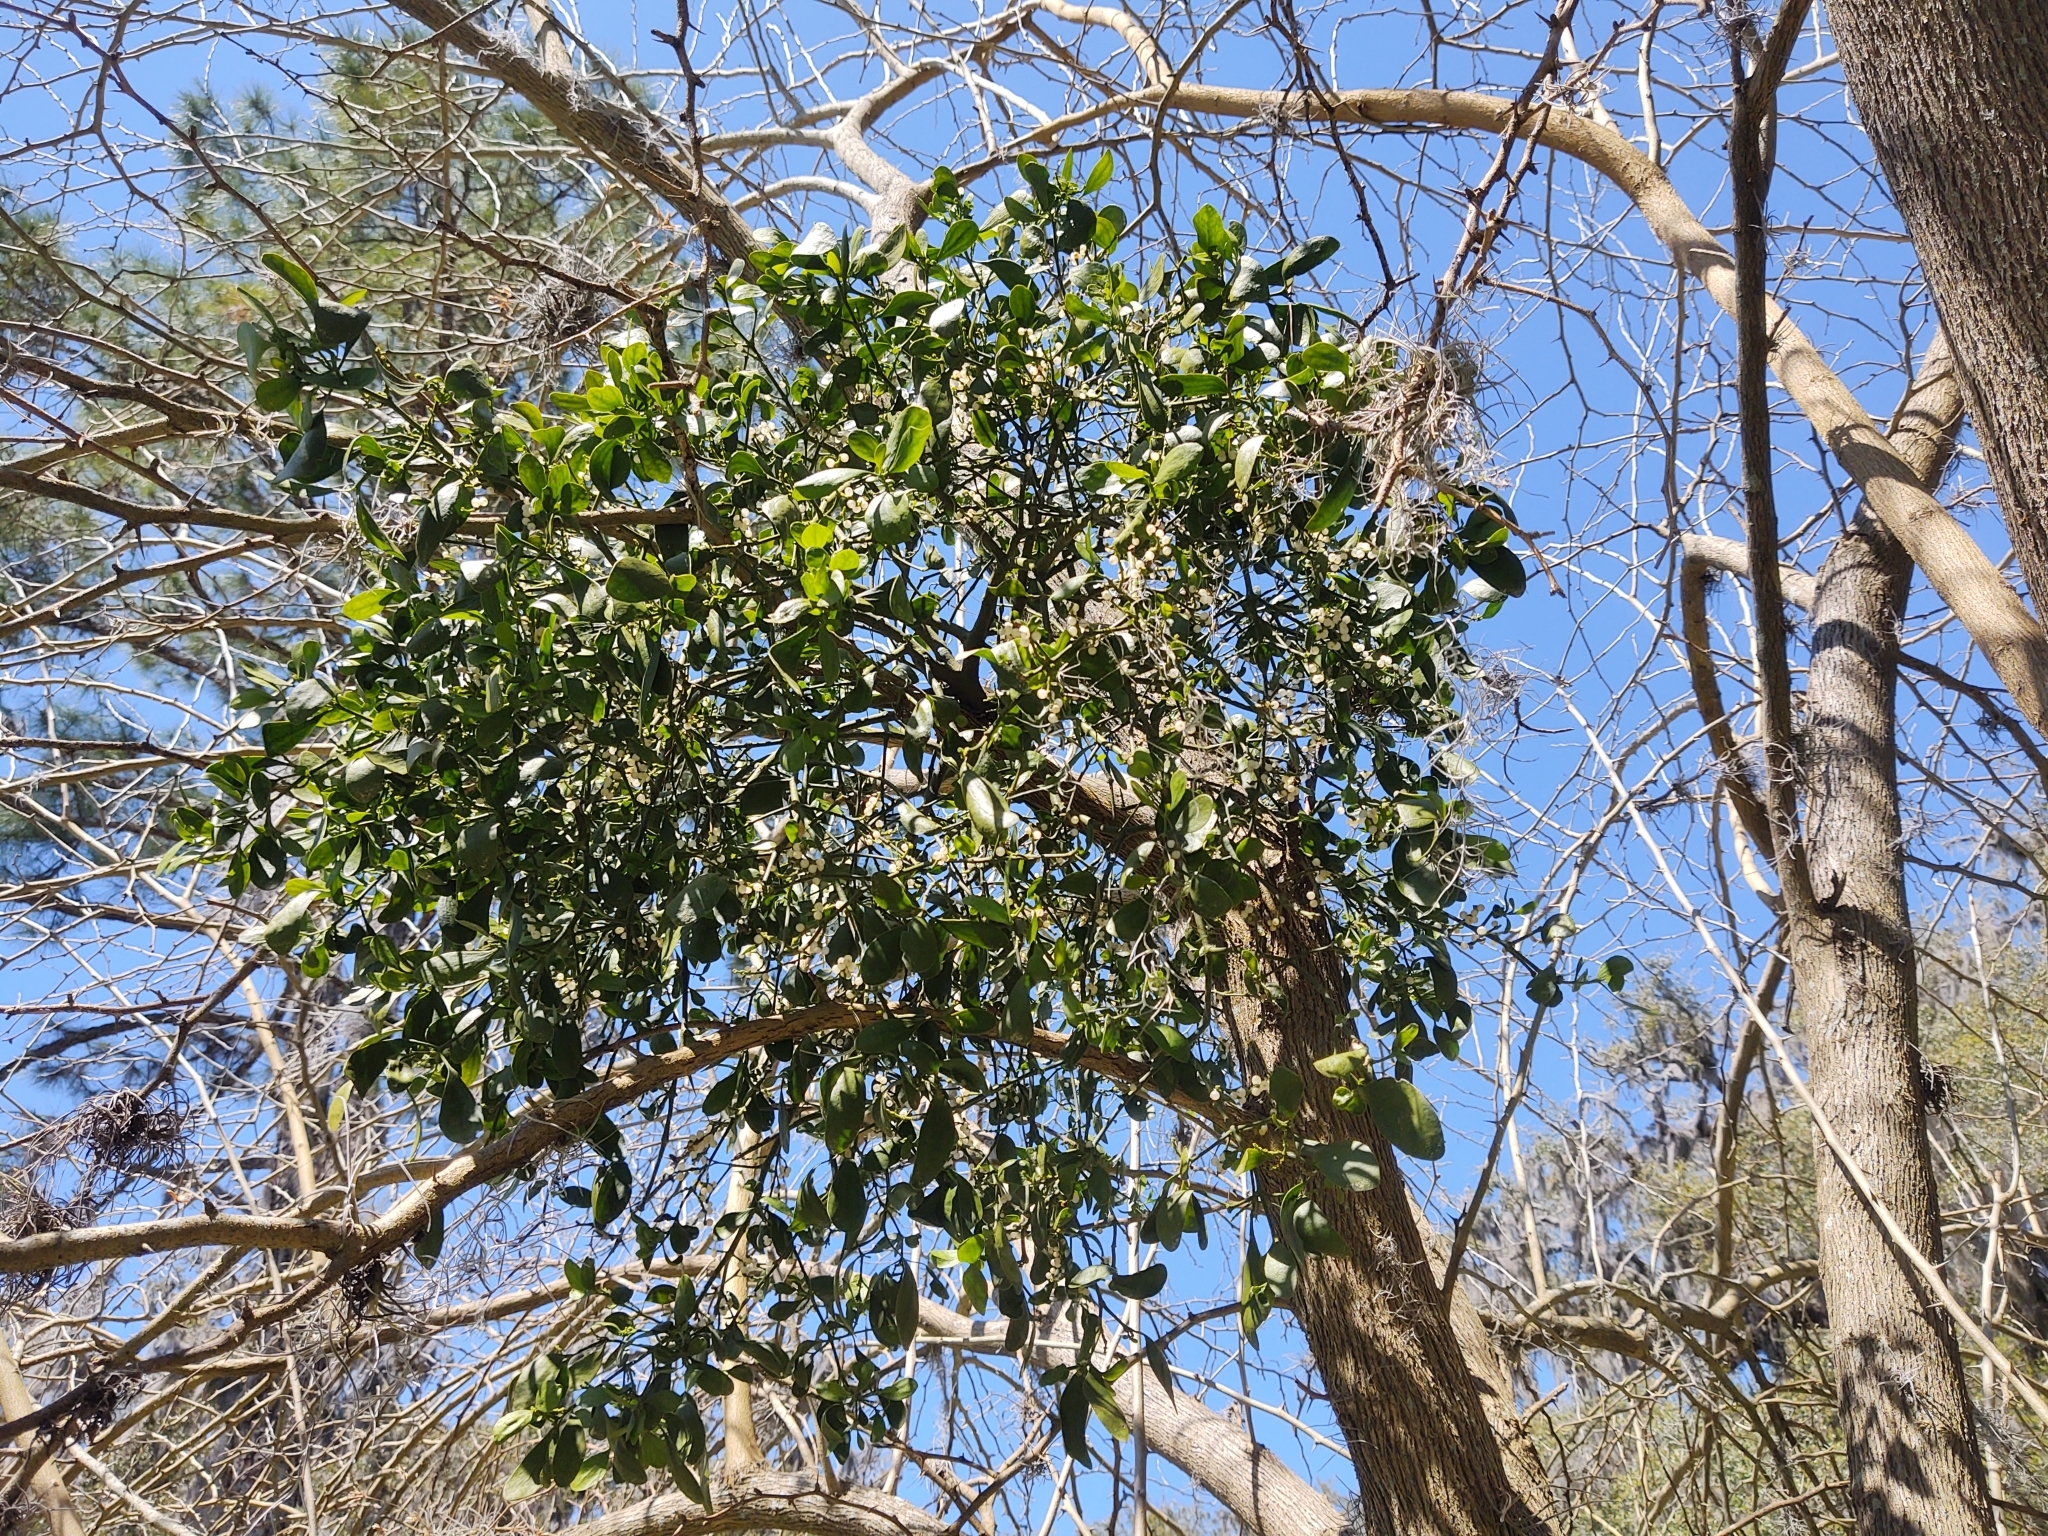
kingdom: Plantae
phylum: Tracheophyta
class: Magnoliopsida
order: Santalales
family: Viscaceae
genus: Phoradendron
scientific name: Phoradendron leucarpum
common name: Pacific mistletoe
